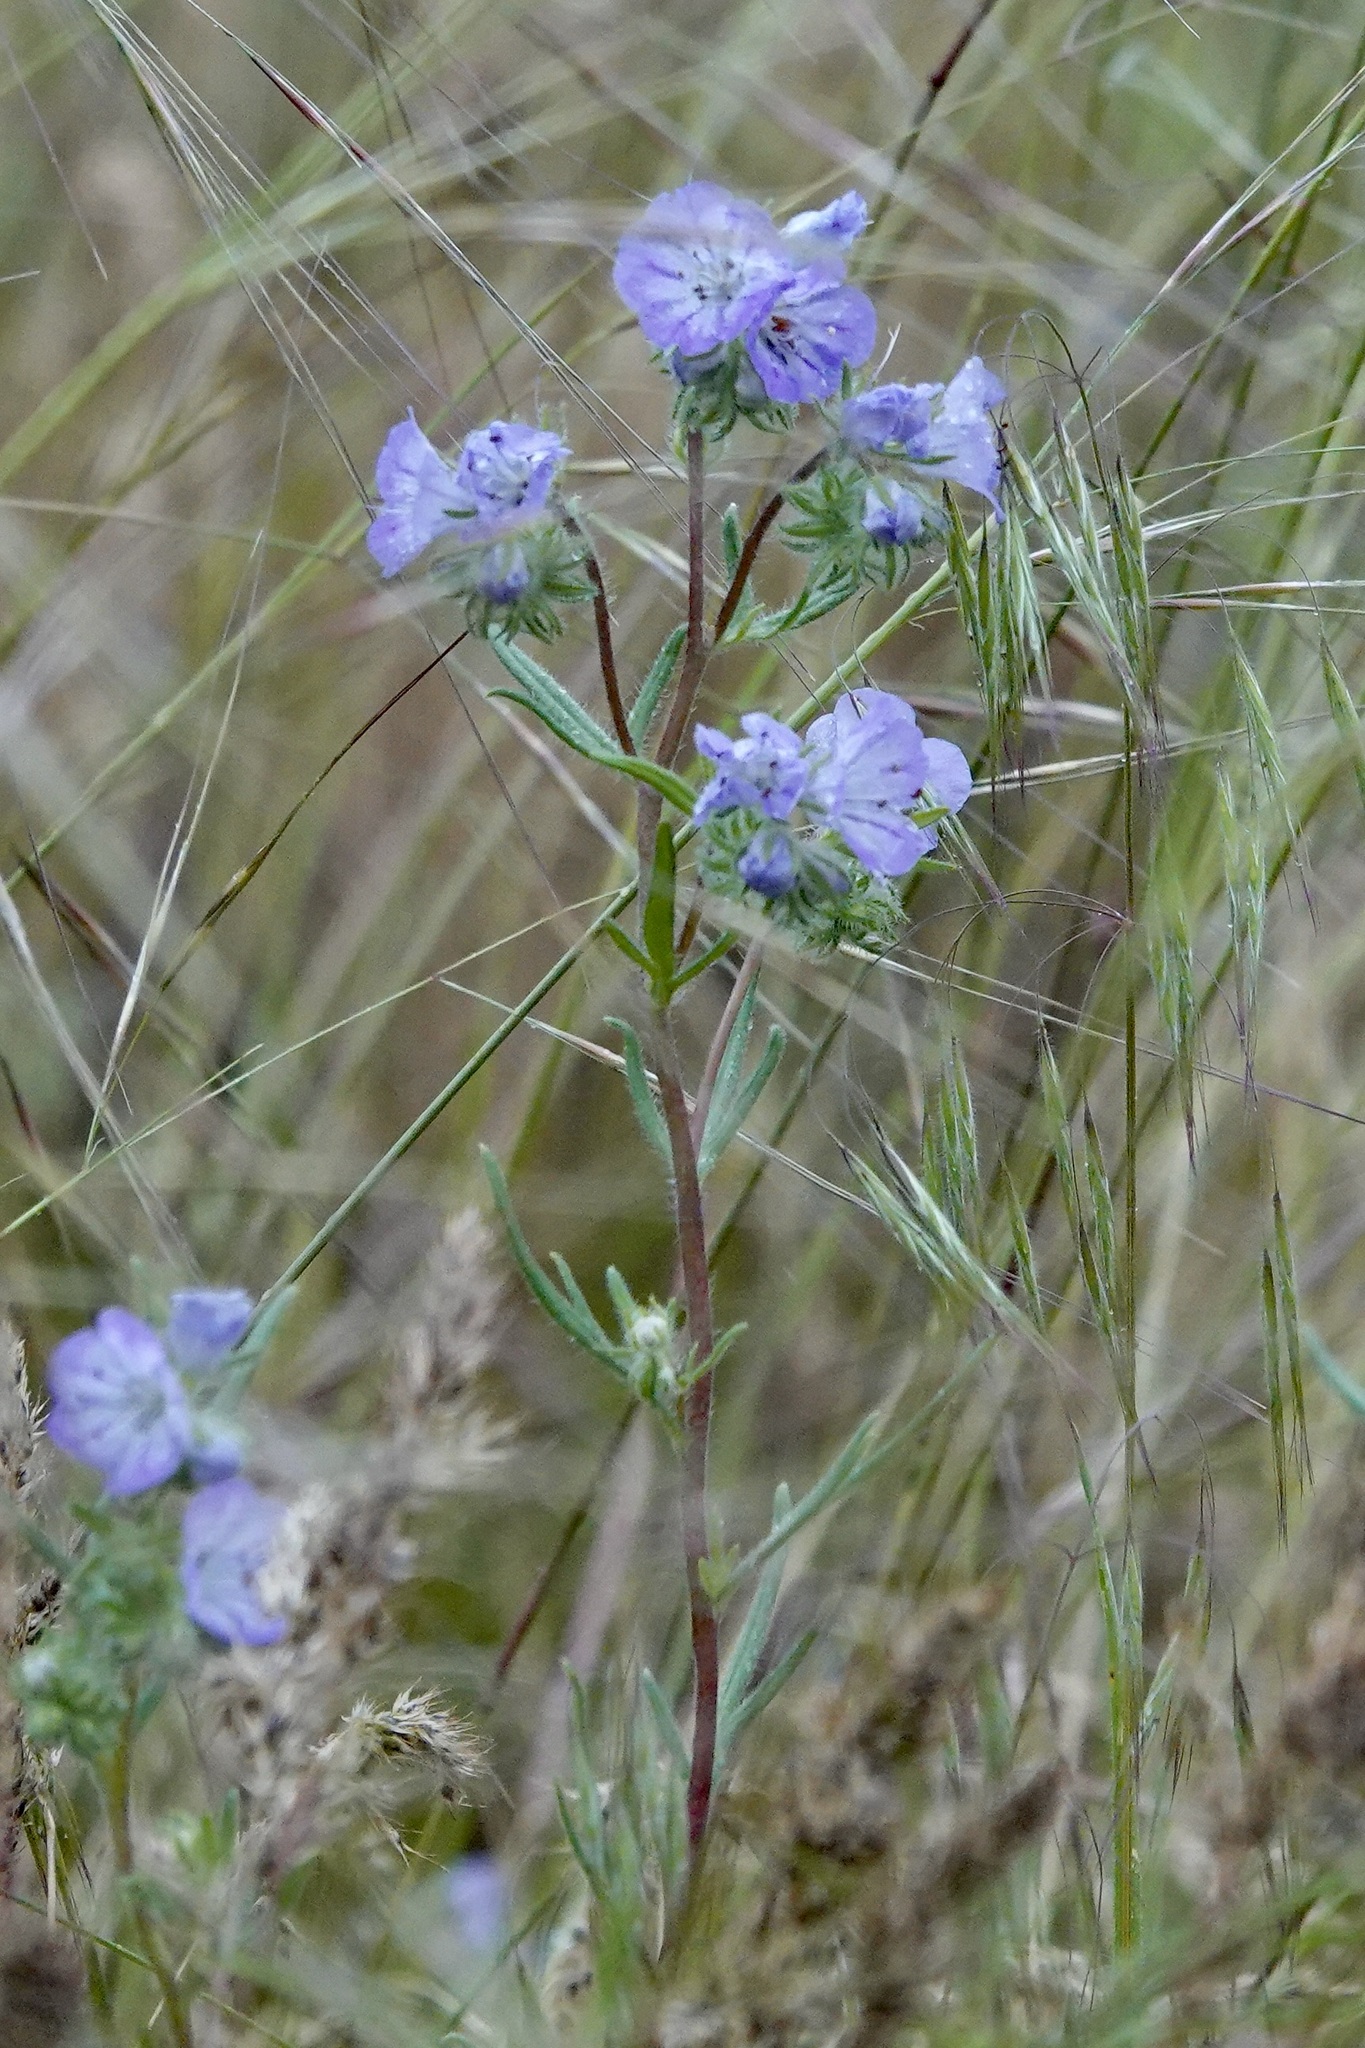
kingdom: Plantae
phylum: Tracheophyta
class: Magnoliopsida
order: Boraginales
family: Hydrophyllaceae
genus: Phacelia
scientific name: Phacelia linearis
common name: Linear-leaved phacelia
